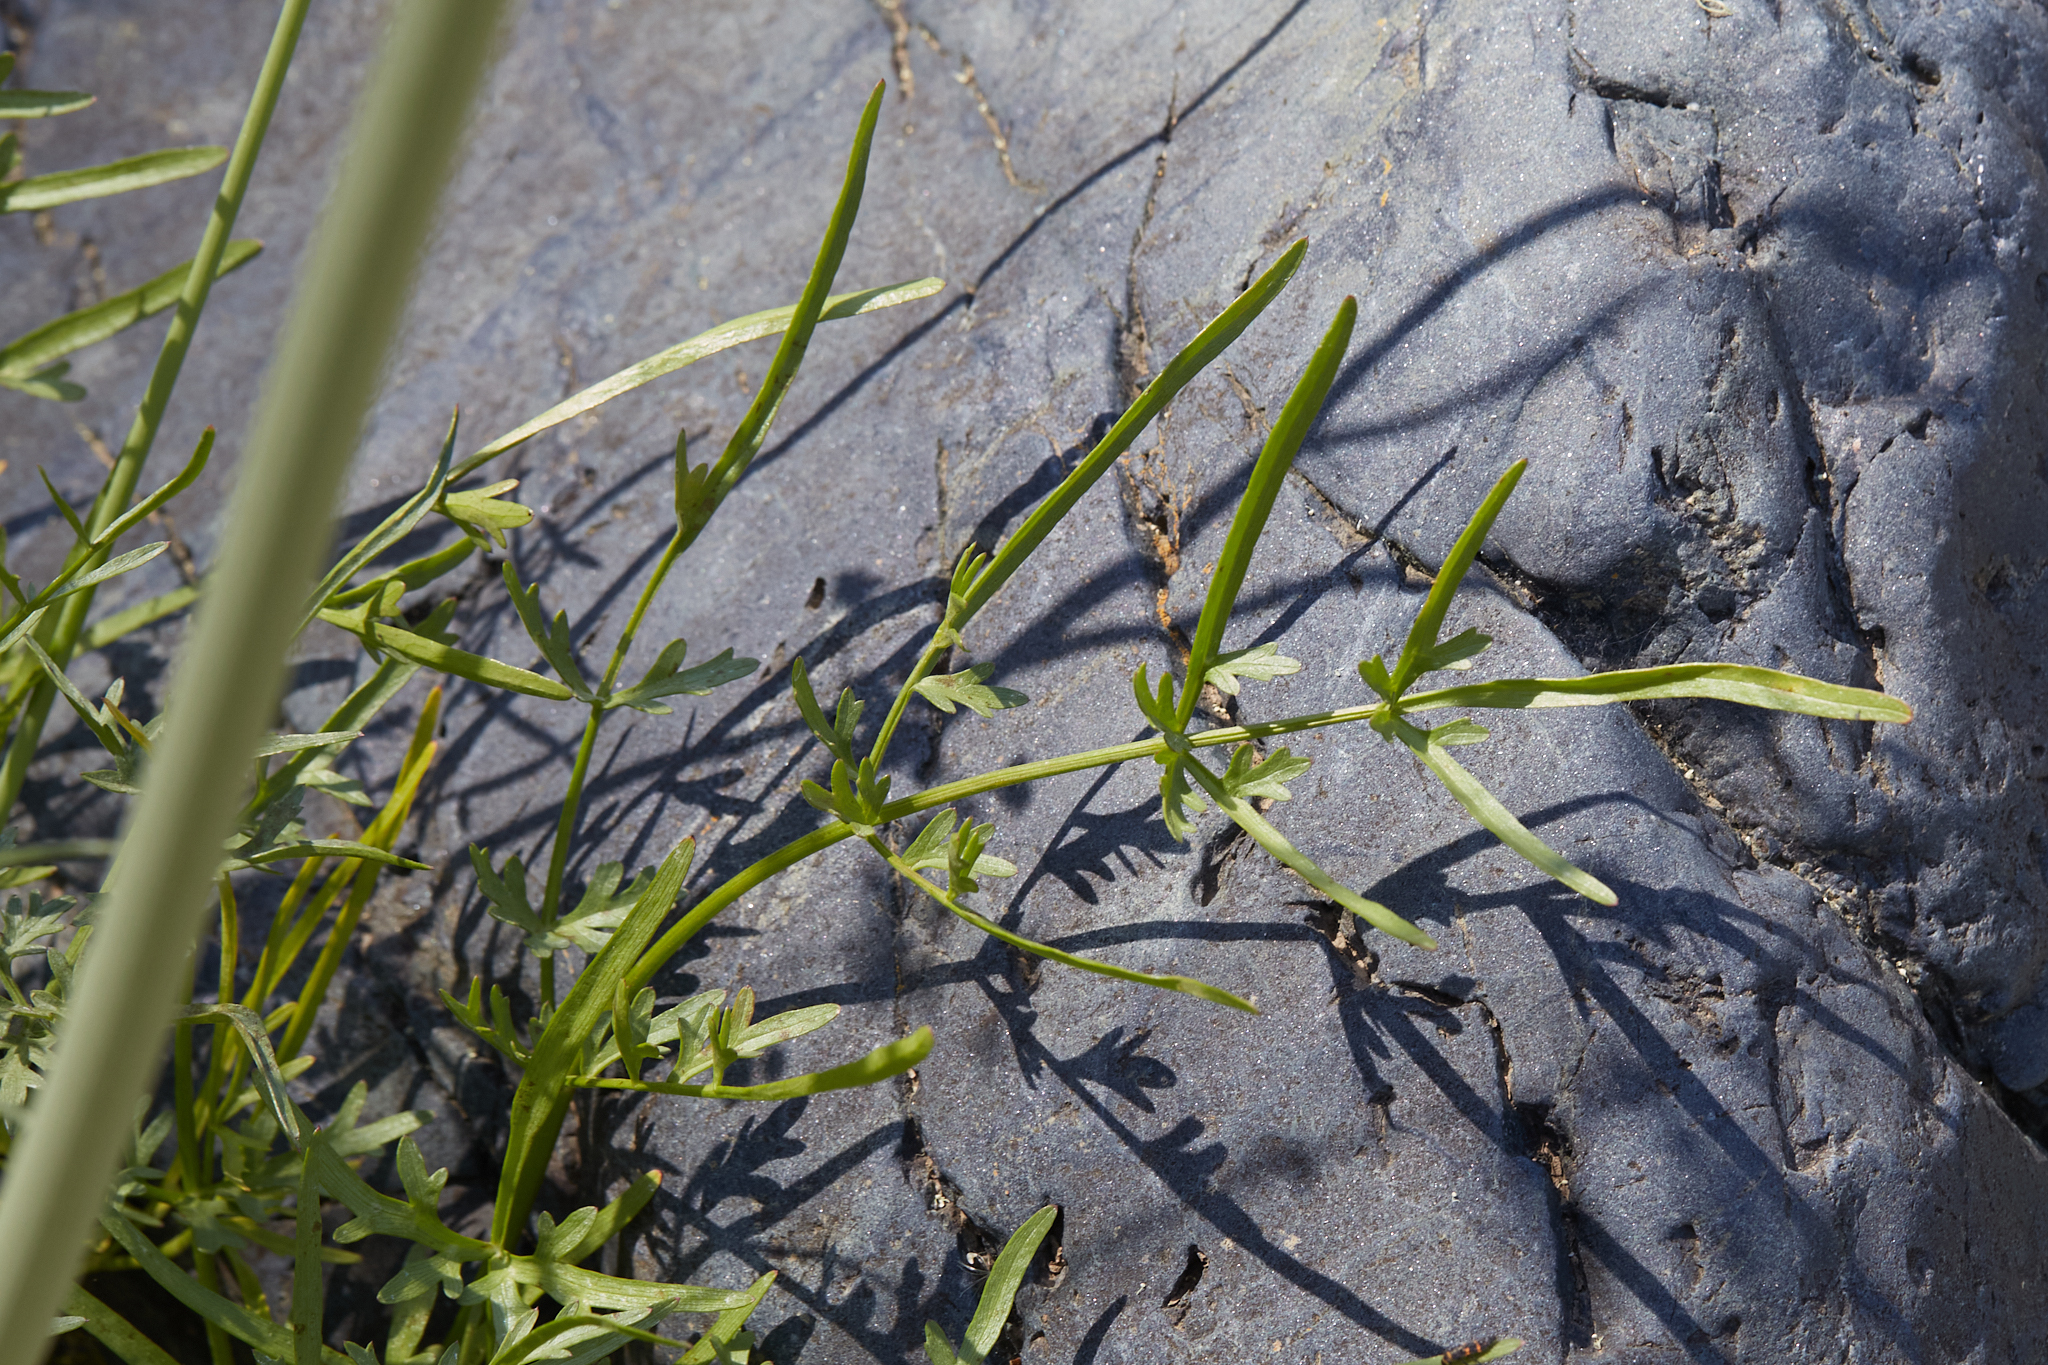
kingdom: Plantae
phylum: Tracheophyta
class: Magnoliopsida
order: Apiales
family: Apiaceae
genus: Perideridia
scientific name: Perideridia californica
